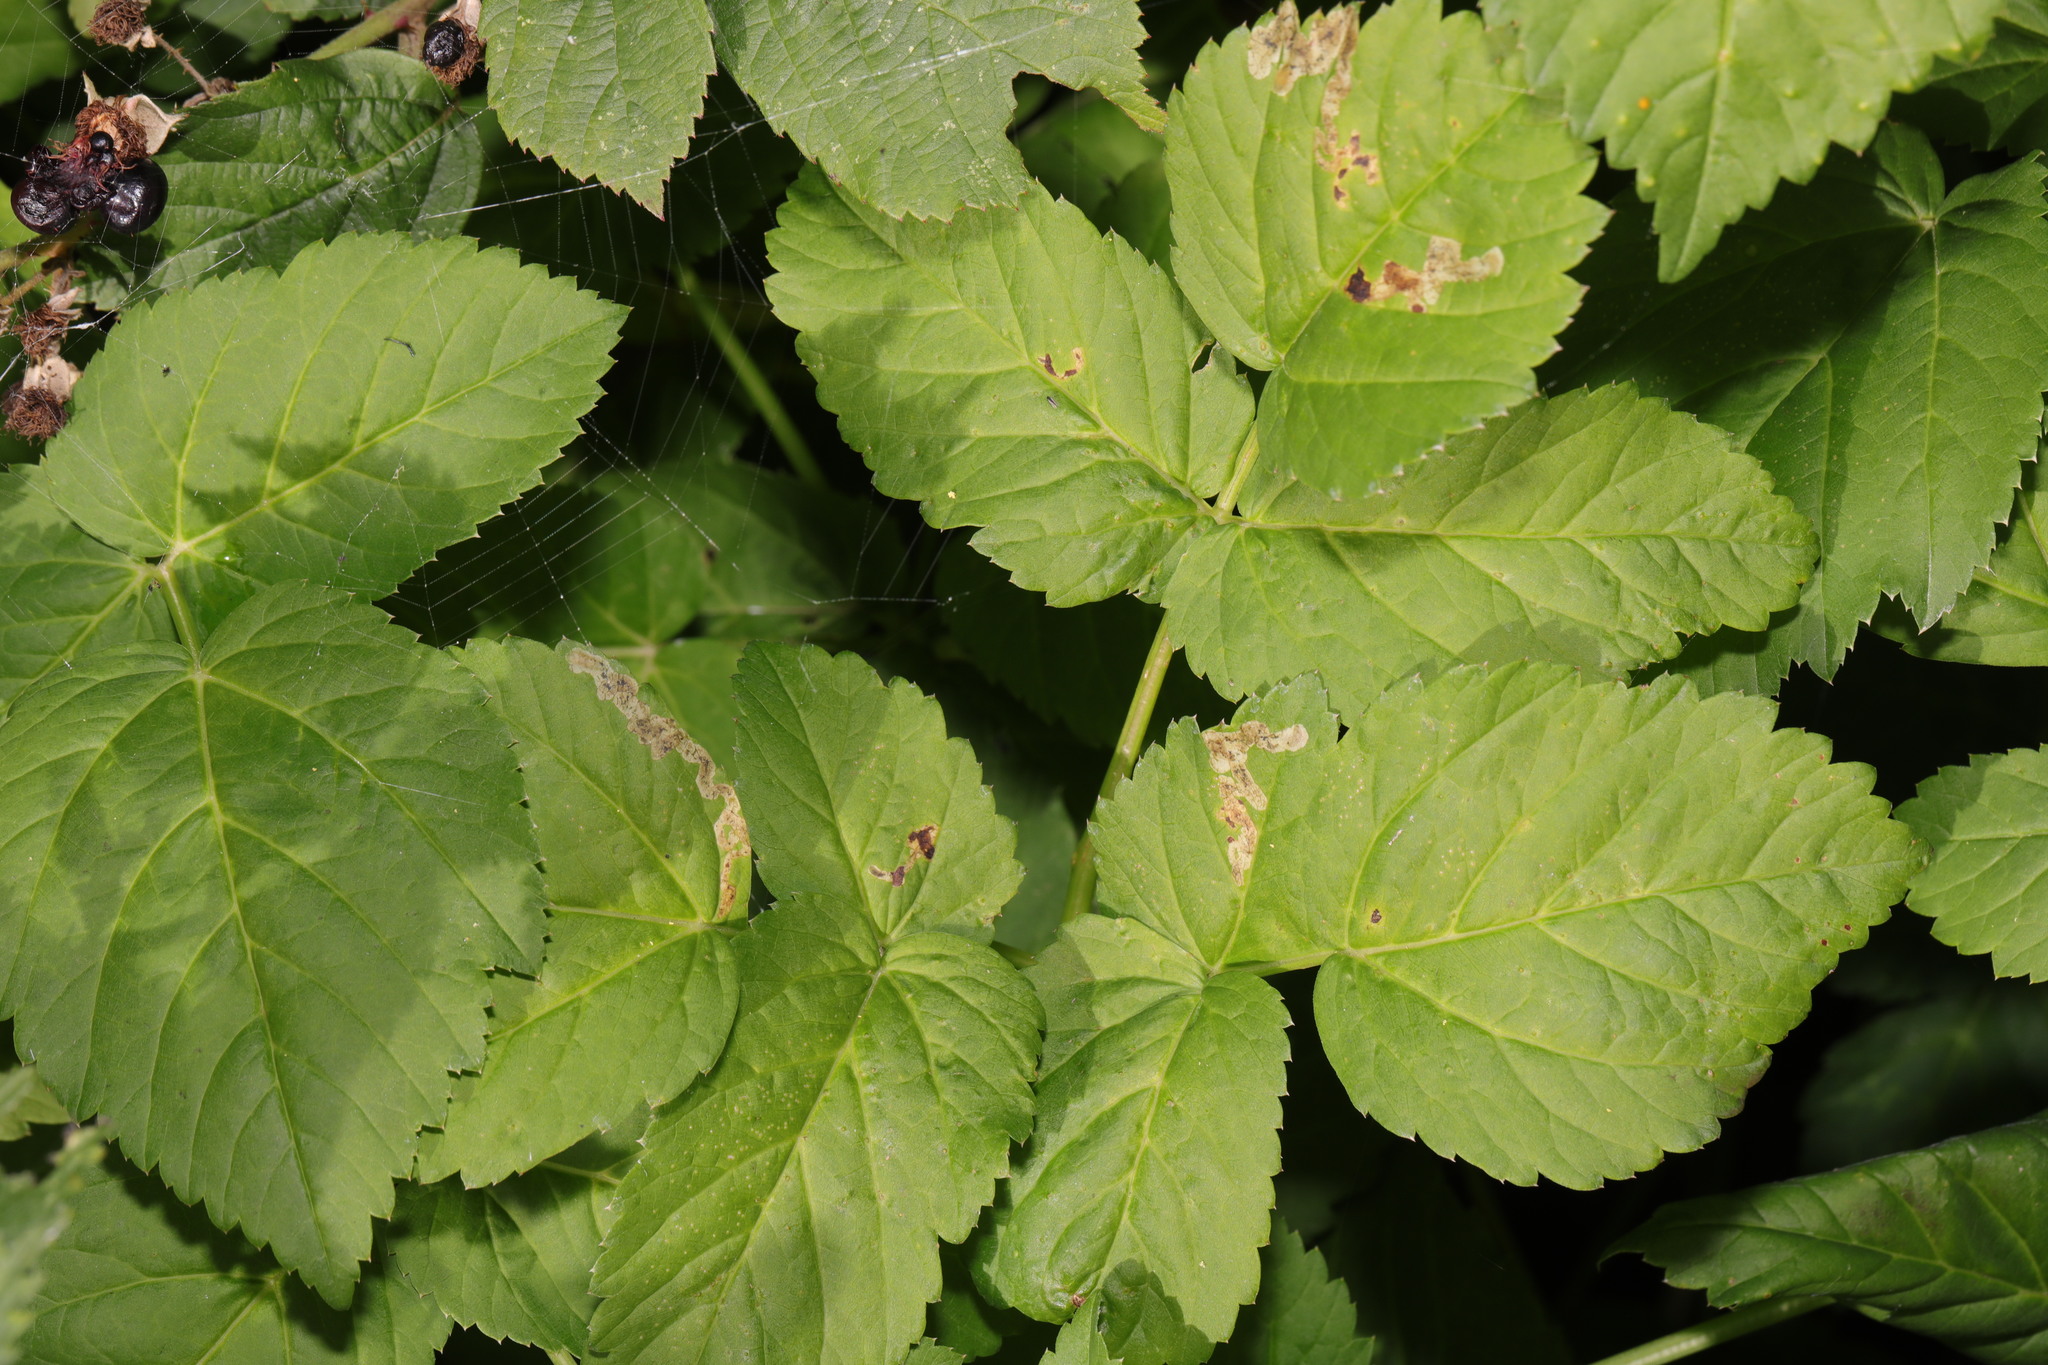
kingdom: Plantae
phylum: Tracheophyta
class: Magnoliopsida
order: Apiales
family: Apiaceae
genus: Aegopodium
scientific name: Aegopodium podagraria
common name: Ground-elder
